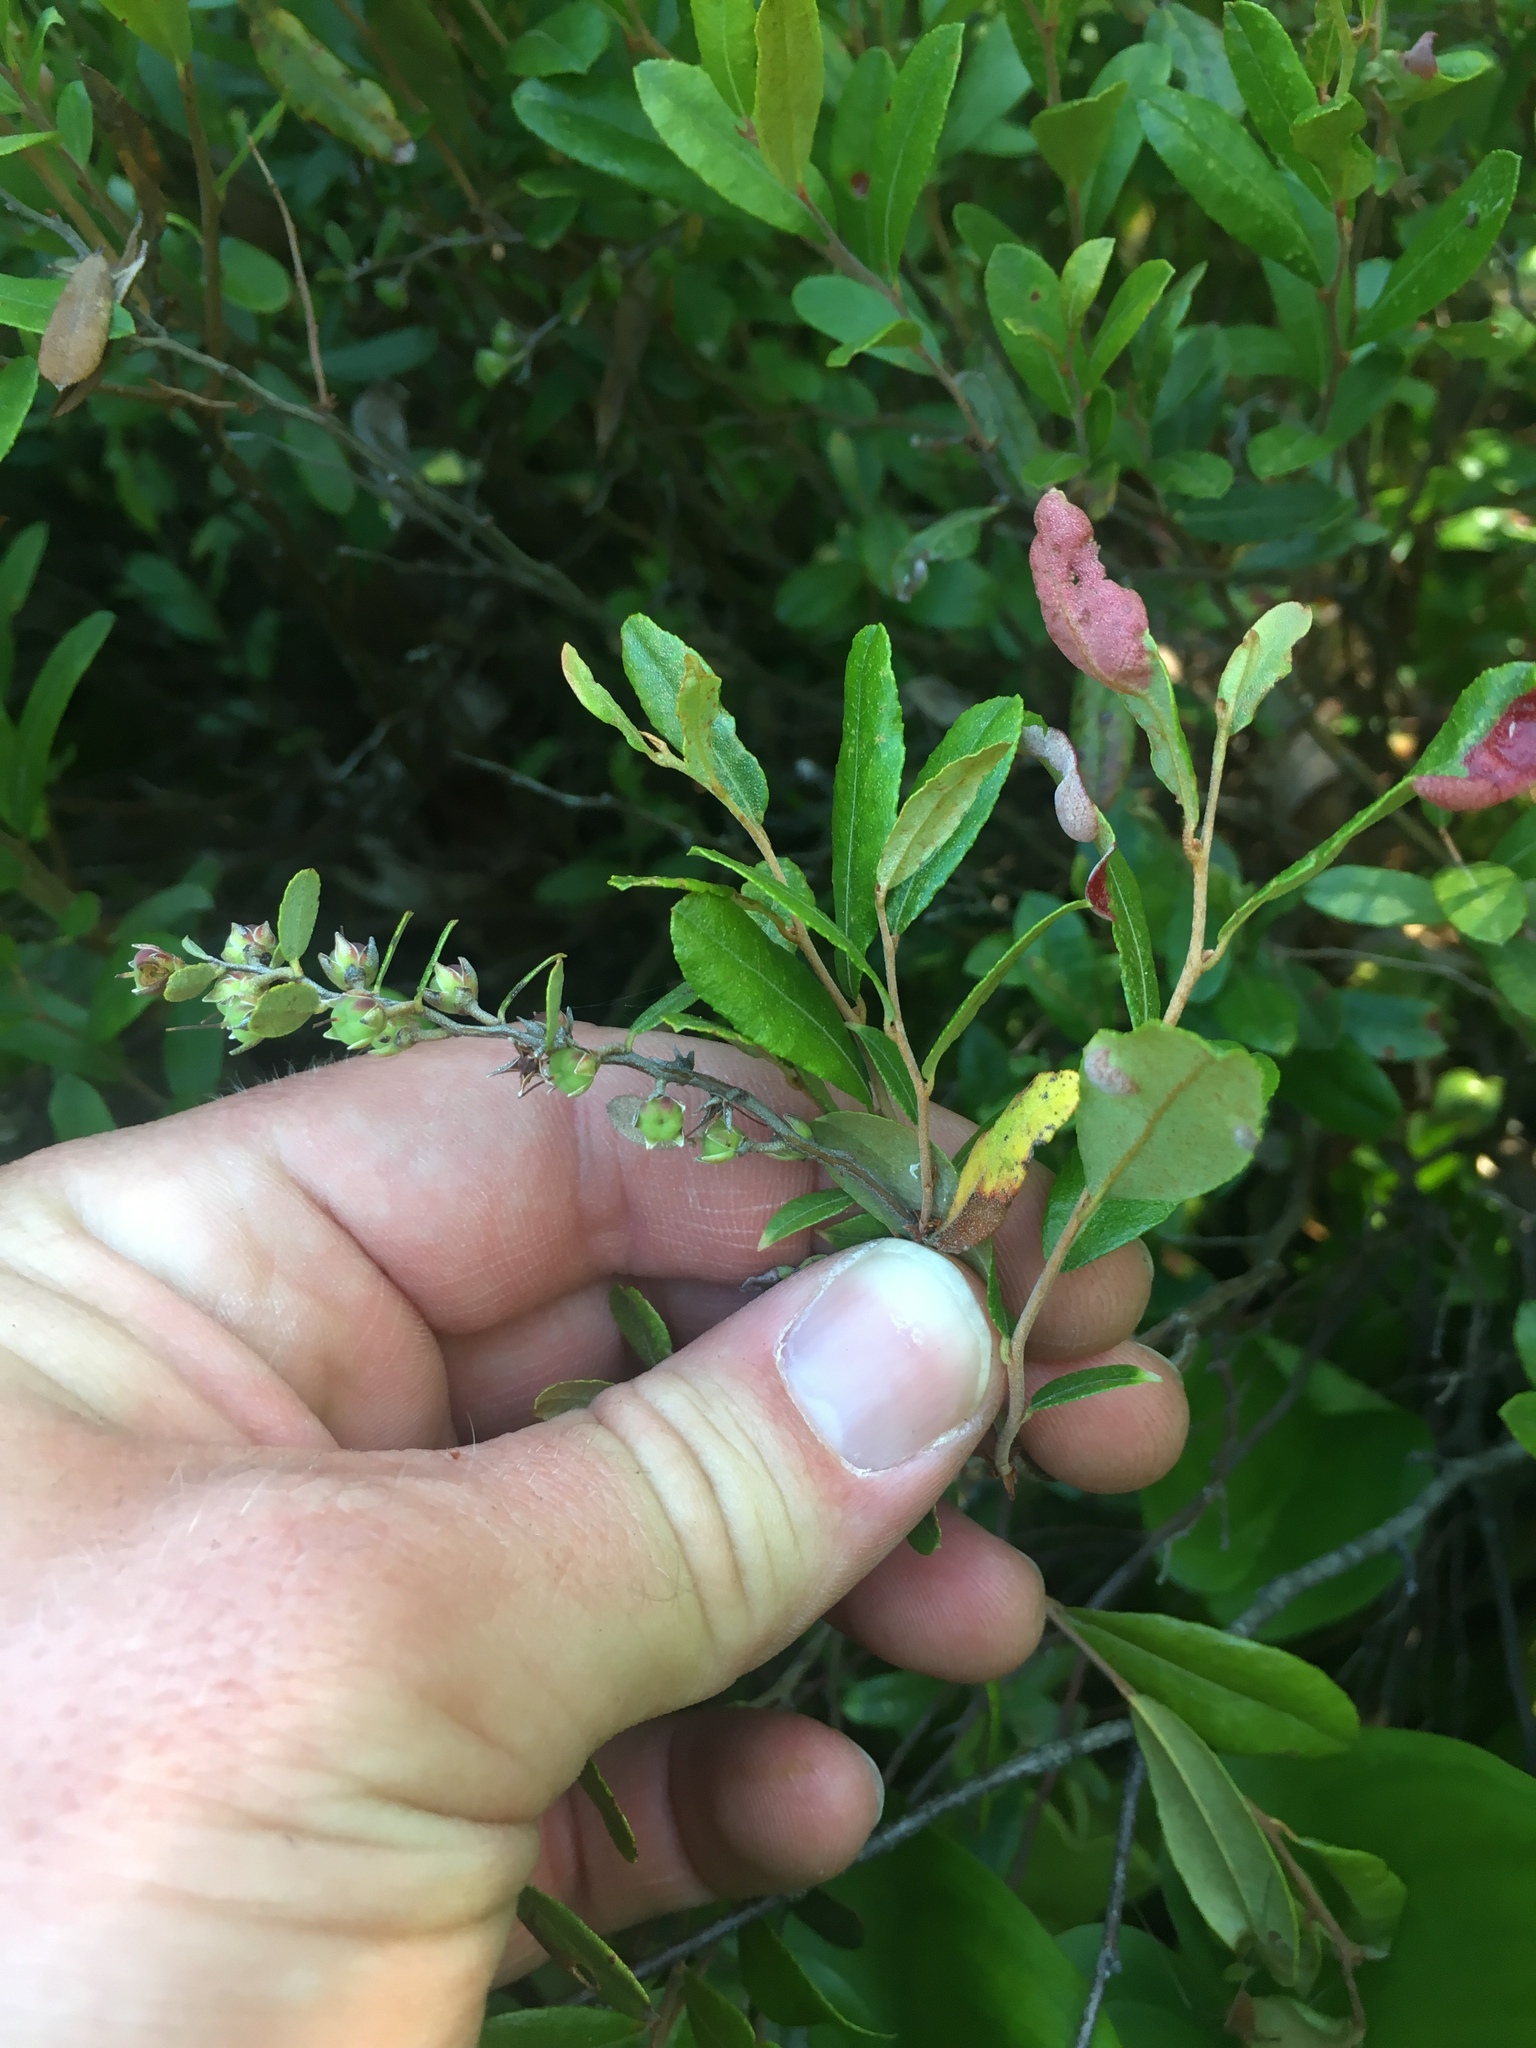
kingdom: Plantae
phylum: Tracheophyta
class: Magnoliopsida
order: Ericales
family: Ericaceae
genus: Chamaedaphne
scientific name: Chamaedaphne calyculata
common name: Leatherleaf
